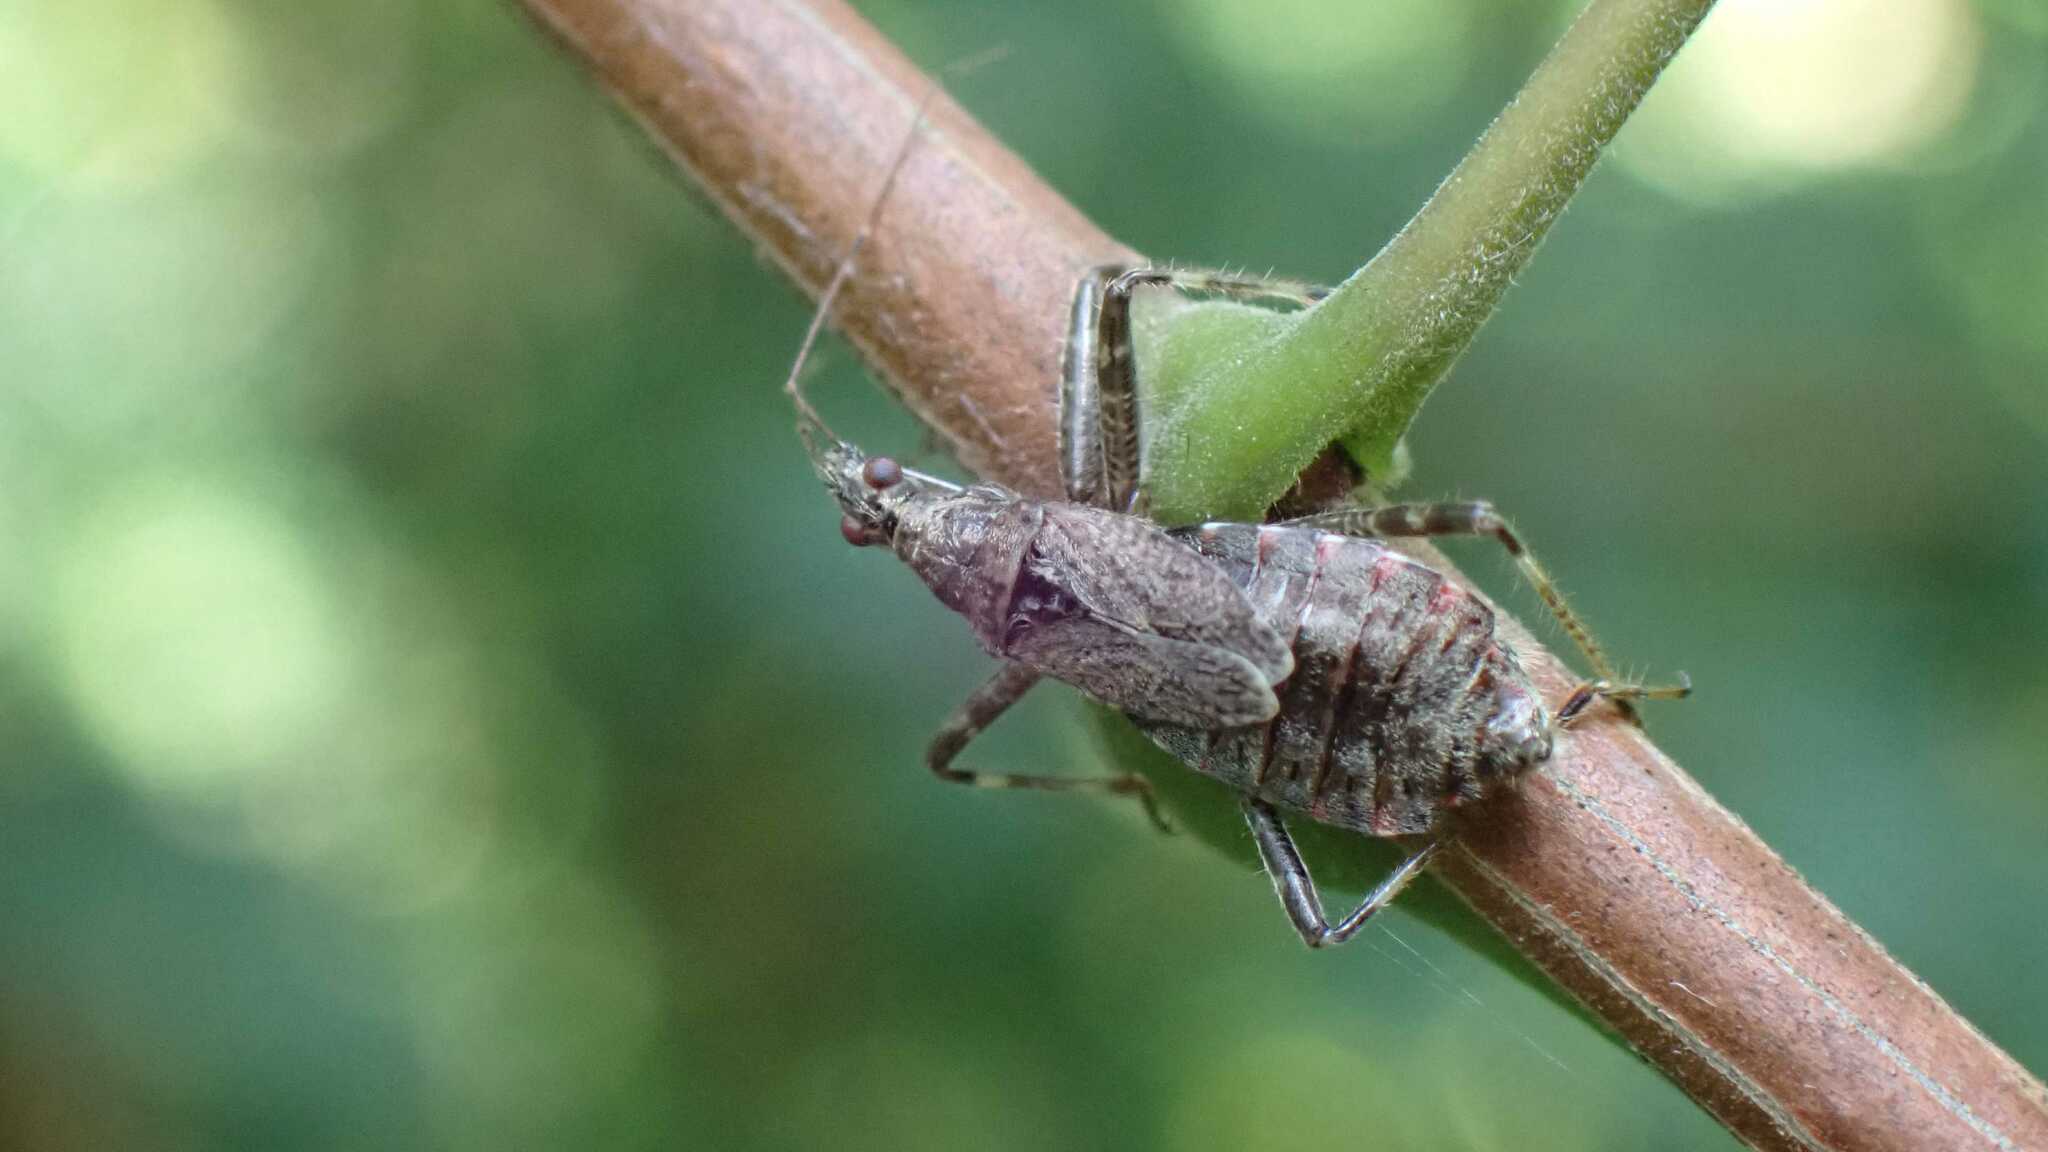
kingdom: Animalia
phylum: Arthropoda
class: Insecta
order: Hemiptera
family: Nabidae
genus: Himacerus
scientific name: Himacerus apterus
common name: Tree damsel bug
